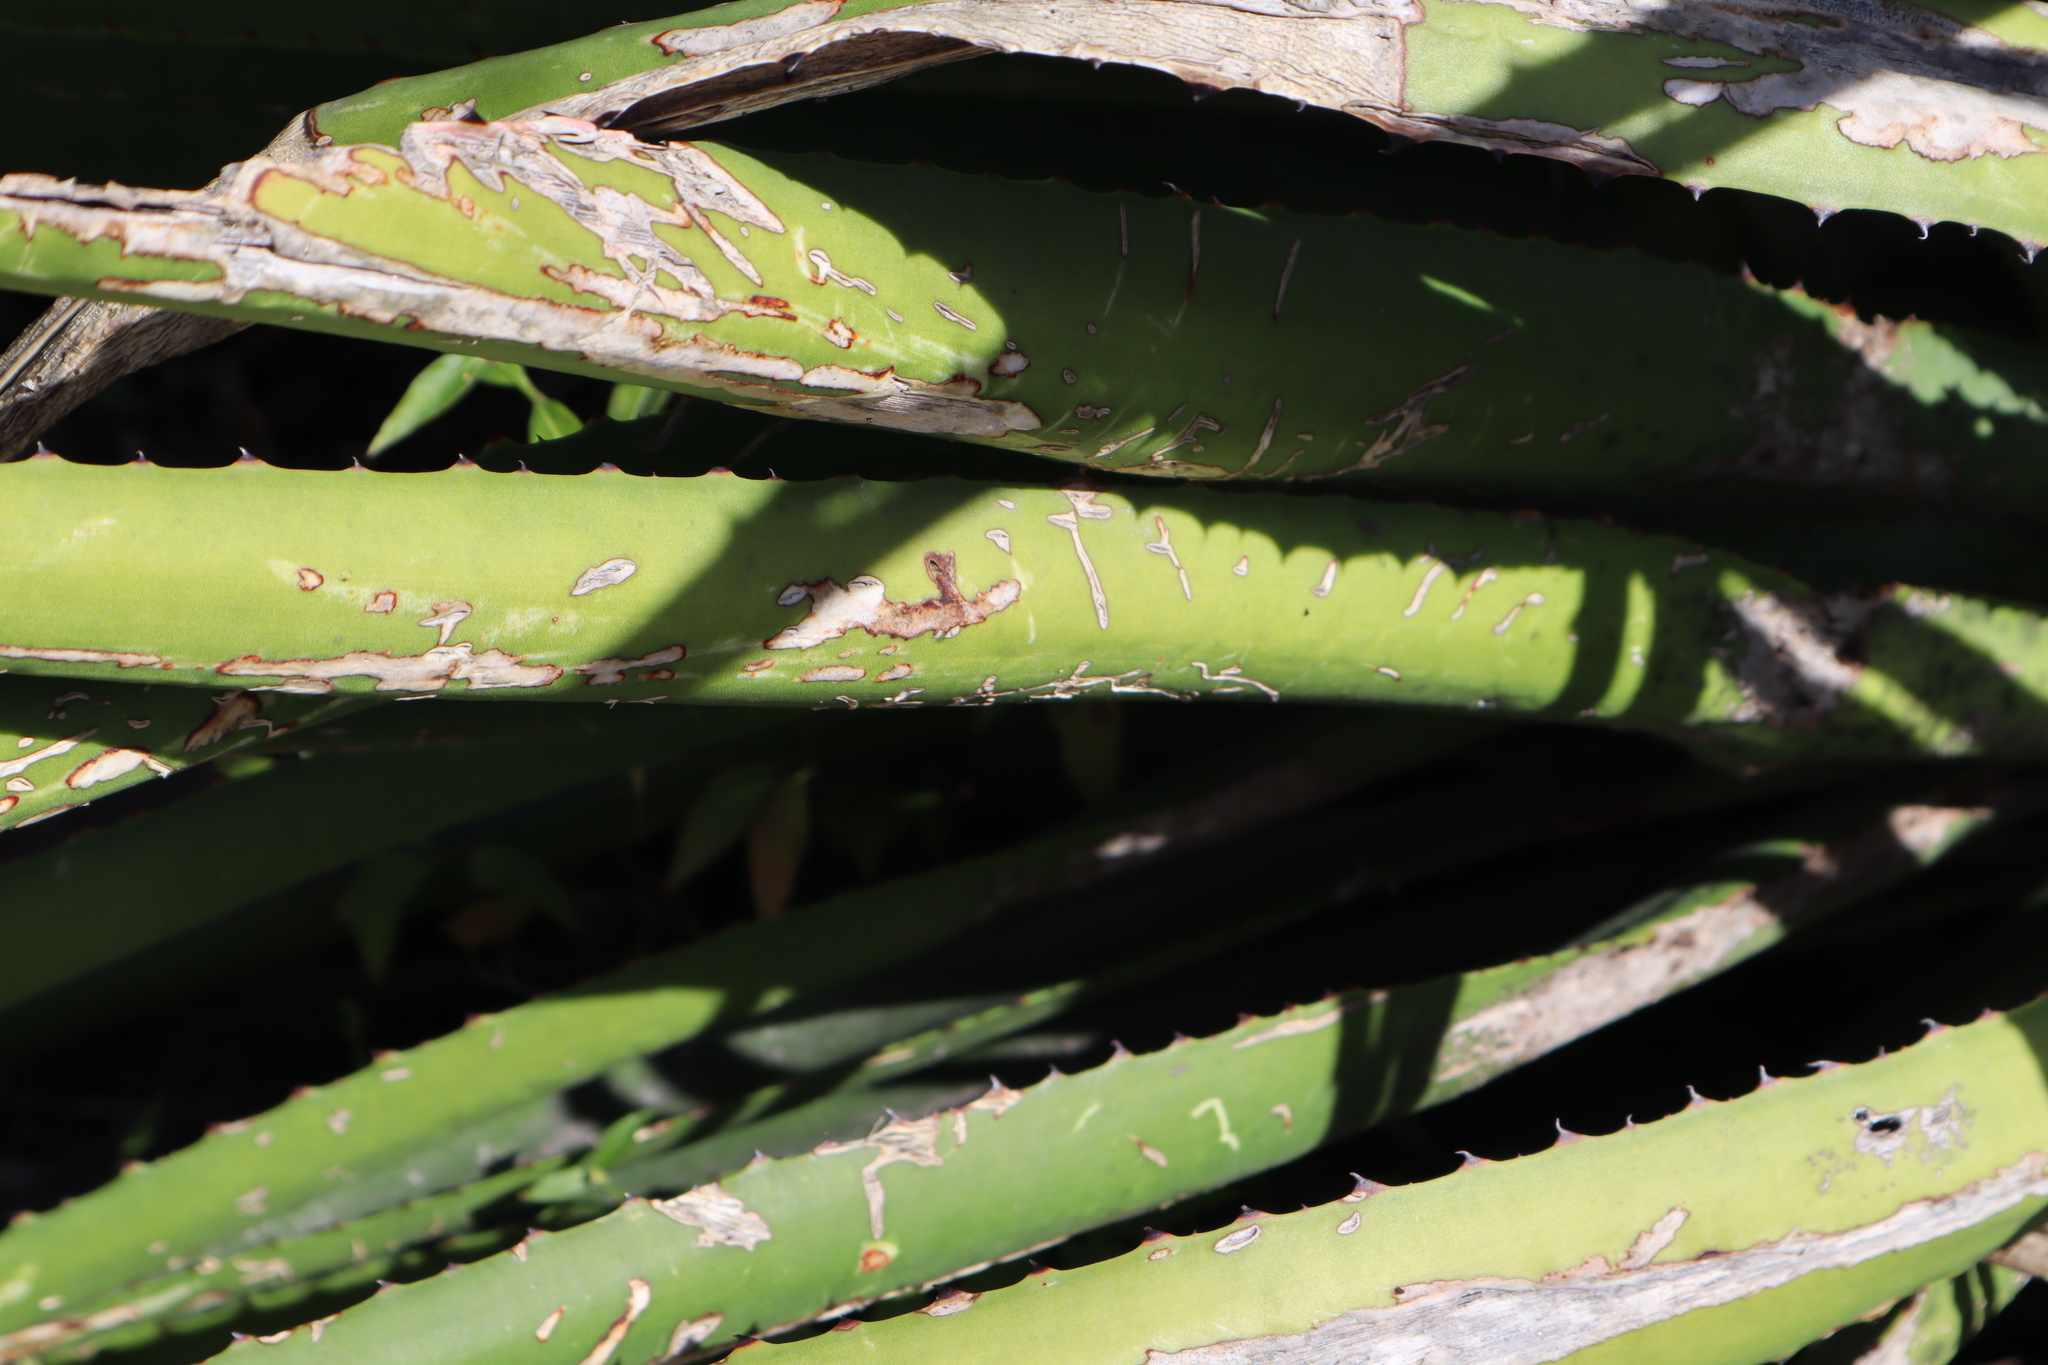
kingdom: Plantae
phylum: Tracheophyta
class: Liliopsida
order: Asparagales
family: Asparagaceae
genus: Agave
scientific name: Agave decipiens
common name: False sisal
